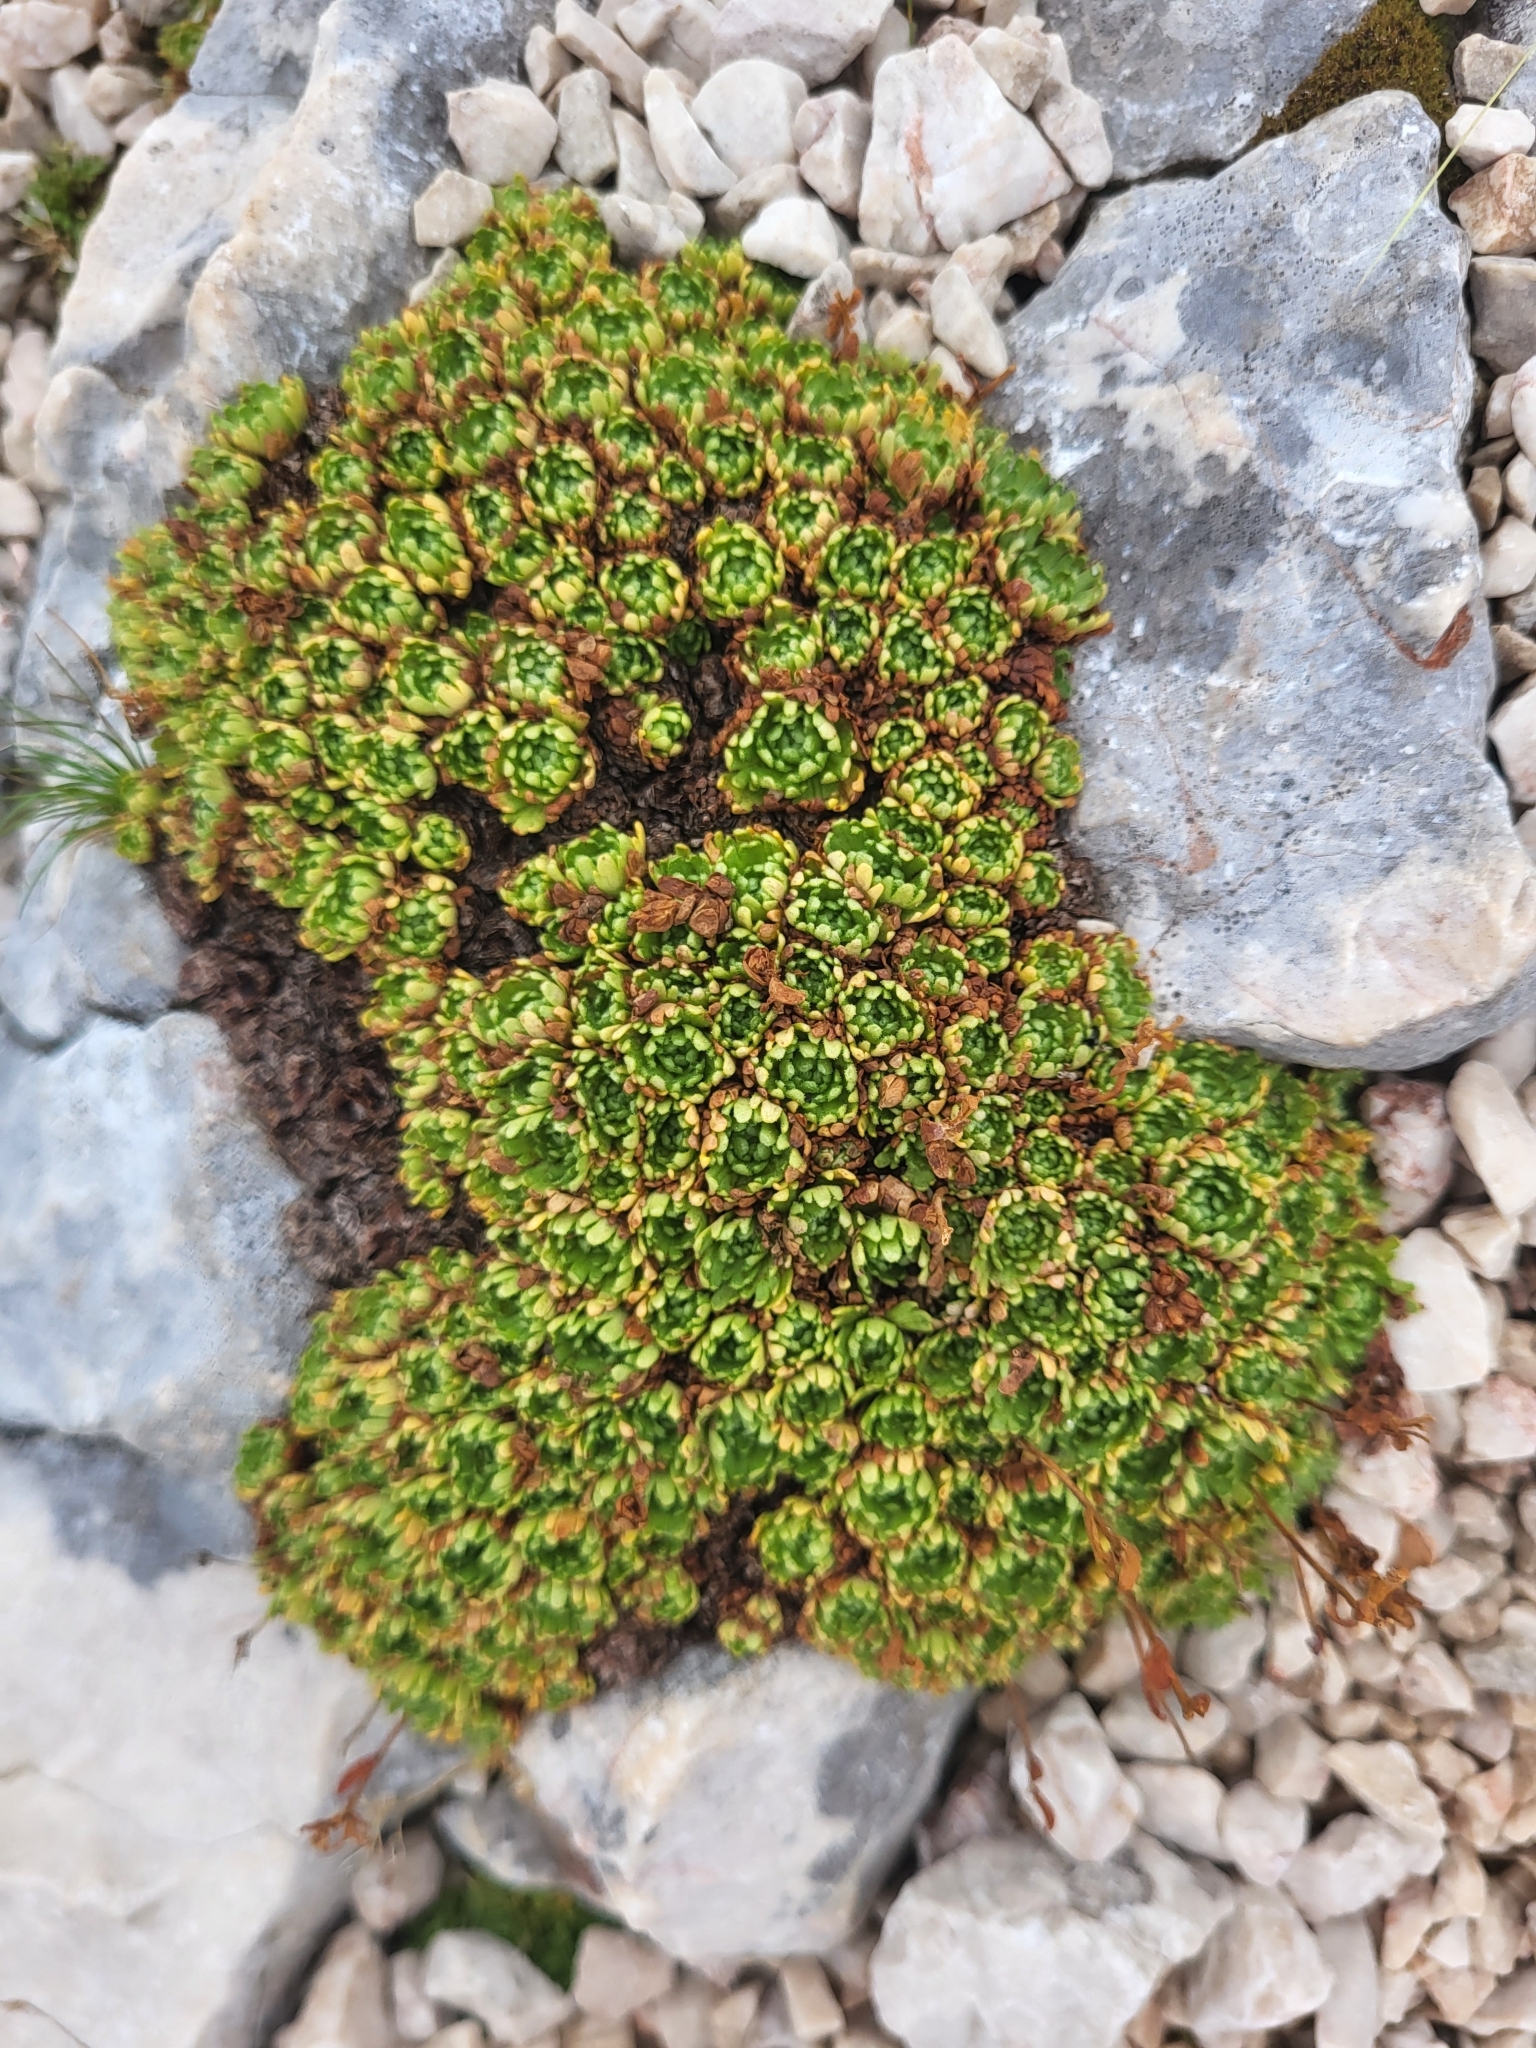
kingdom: Plantae
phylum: Tracheophyta
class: Magnoliopsida
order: Saxifragales
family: Saxifragaceae
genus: Saxifraga
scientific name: Saxifraga exarata
